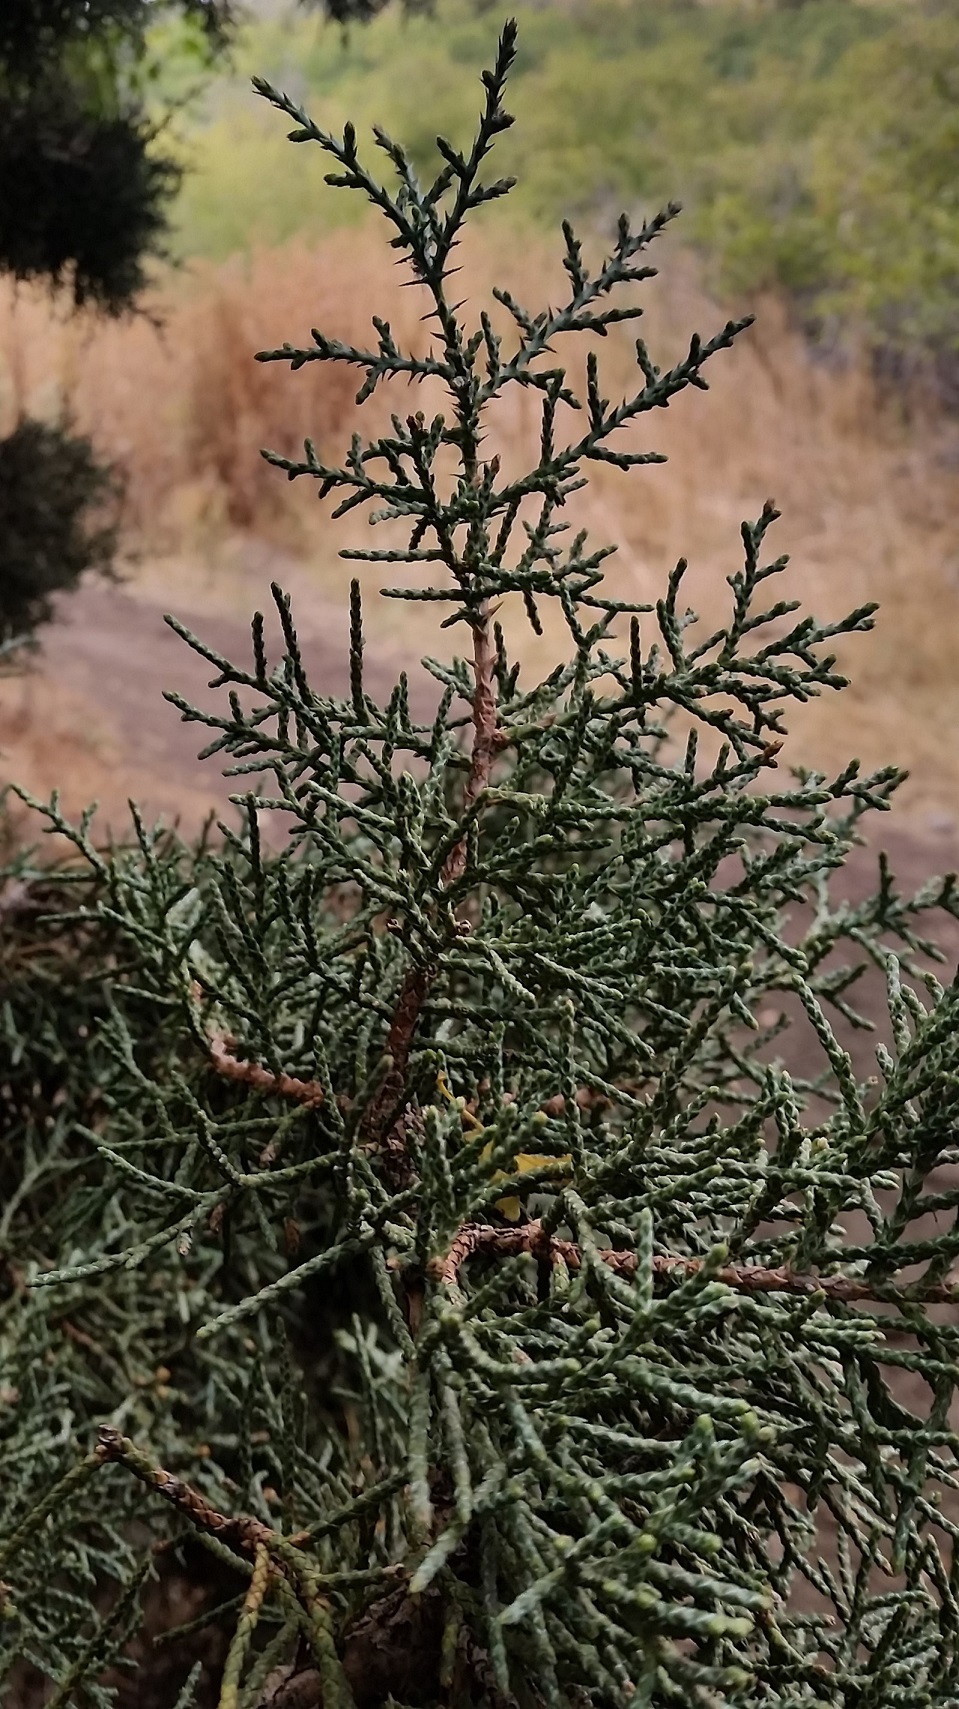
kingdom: Plantae
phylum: Tracheophyta
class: Pinopsida
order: Pinales
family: Cupressaceae
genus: Juniperus
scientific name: Juniperus osteosperma
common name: Utah juniper
